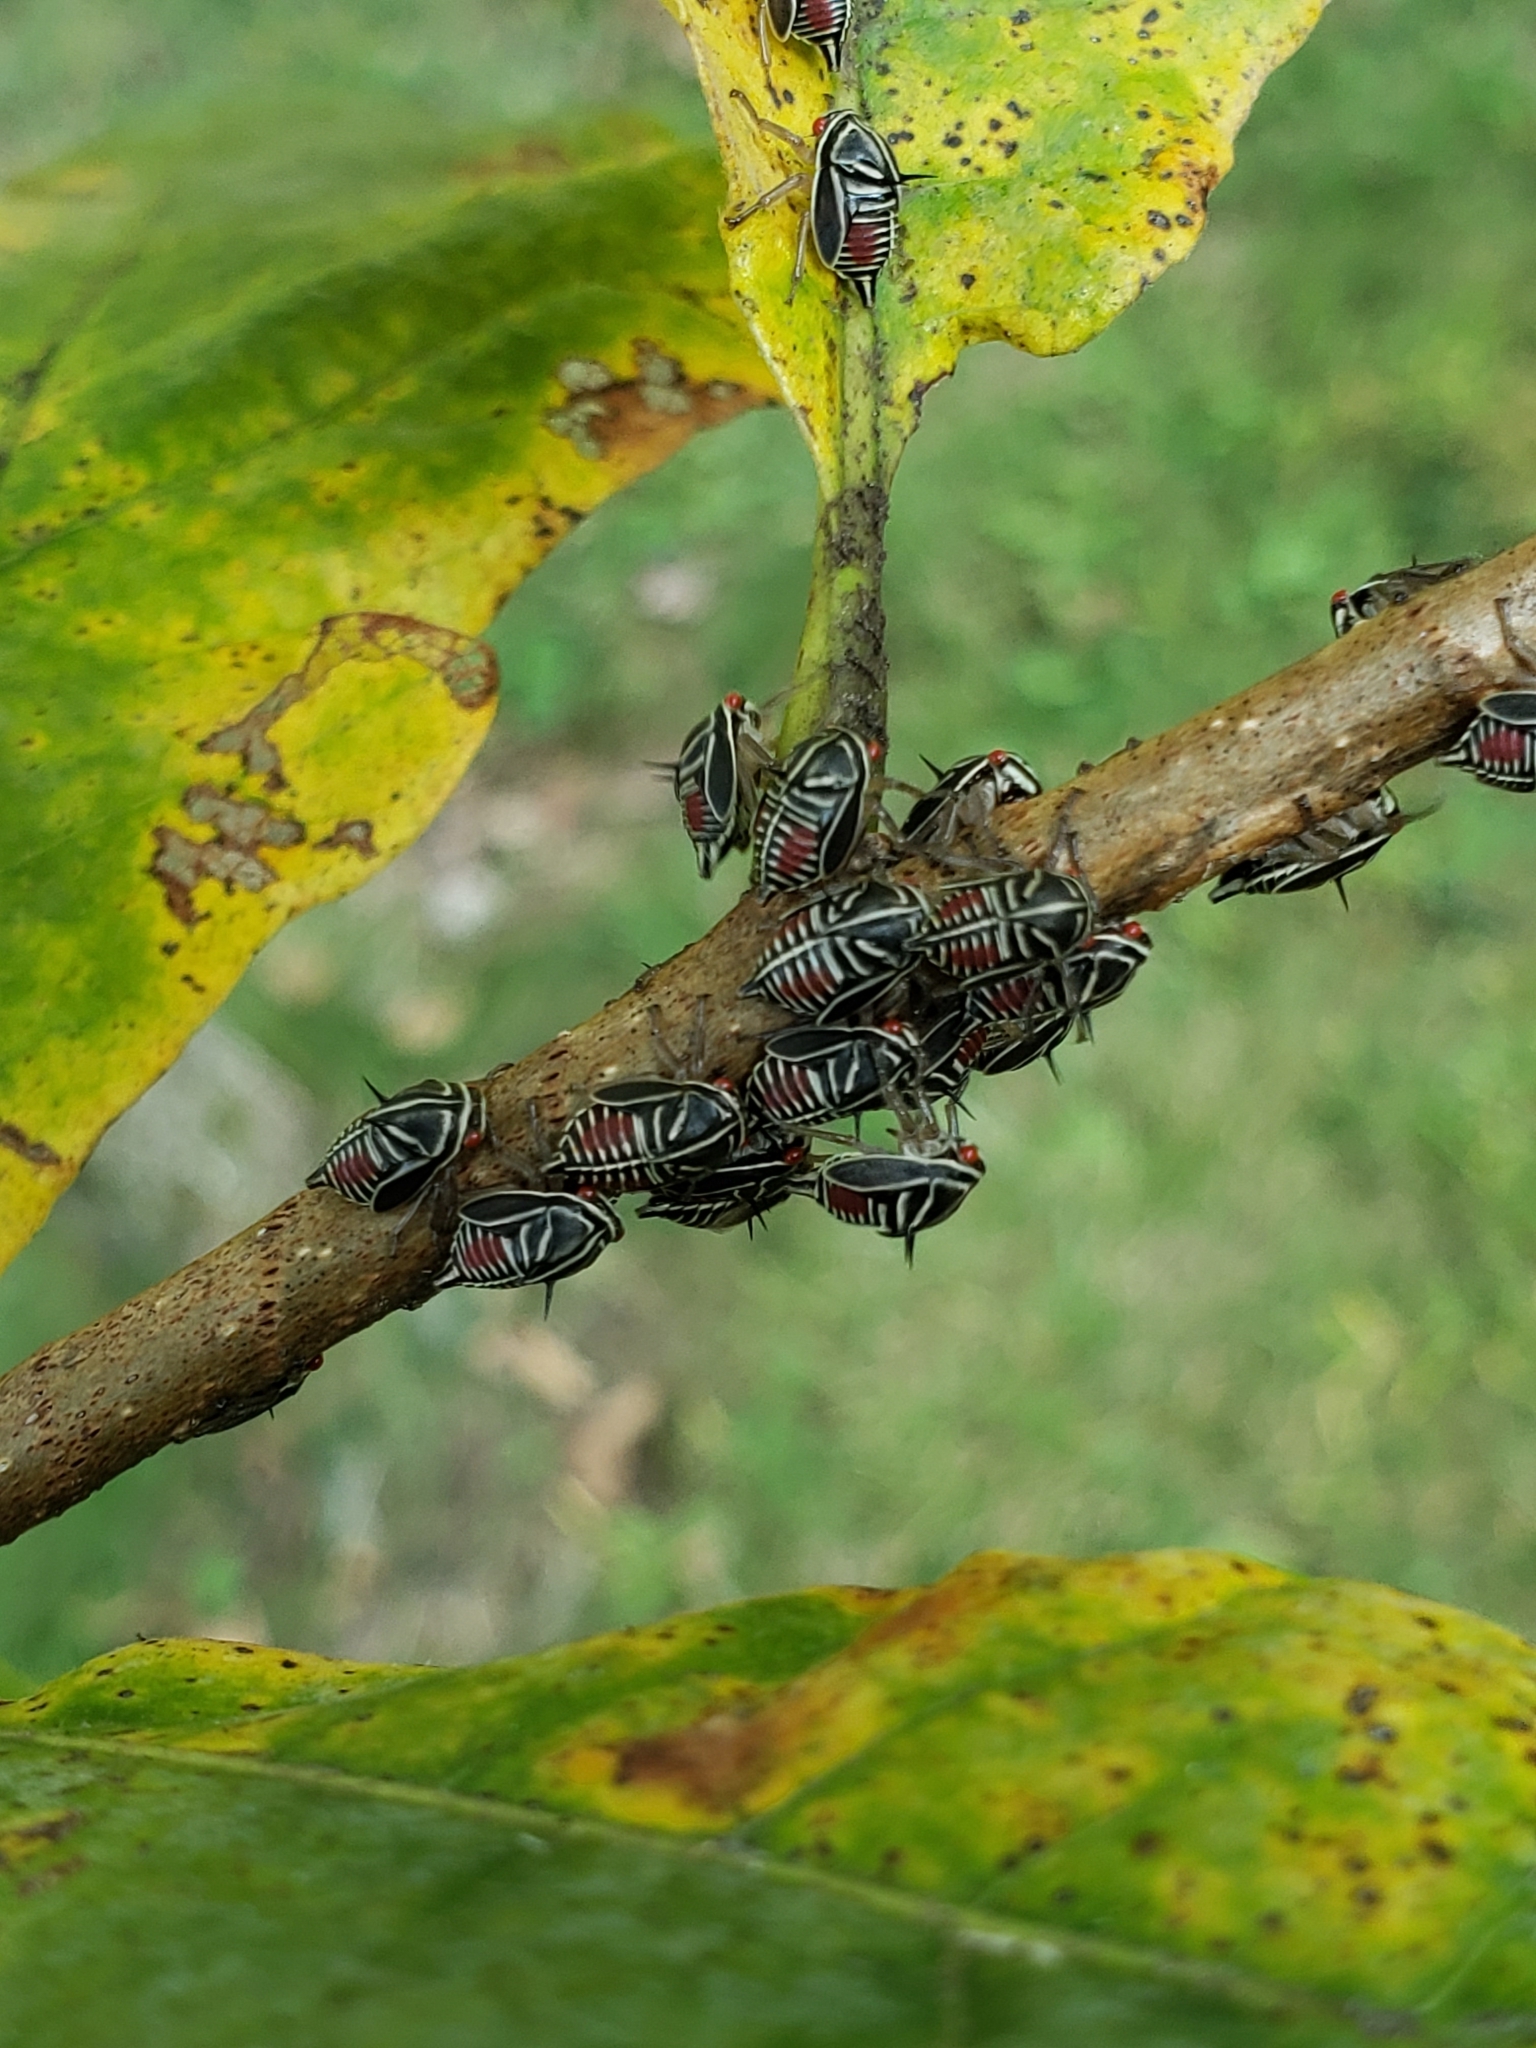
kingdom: Animalia
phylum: Arthropoda
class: Insecta
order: Hemiptera
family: Membracidae
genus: Platycotis
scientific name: Platycotis vittatus
